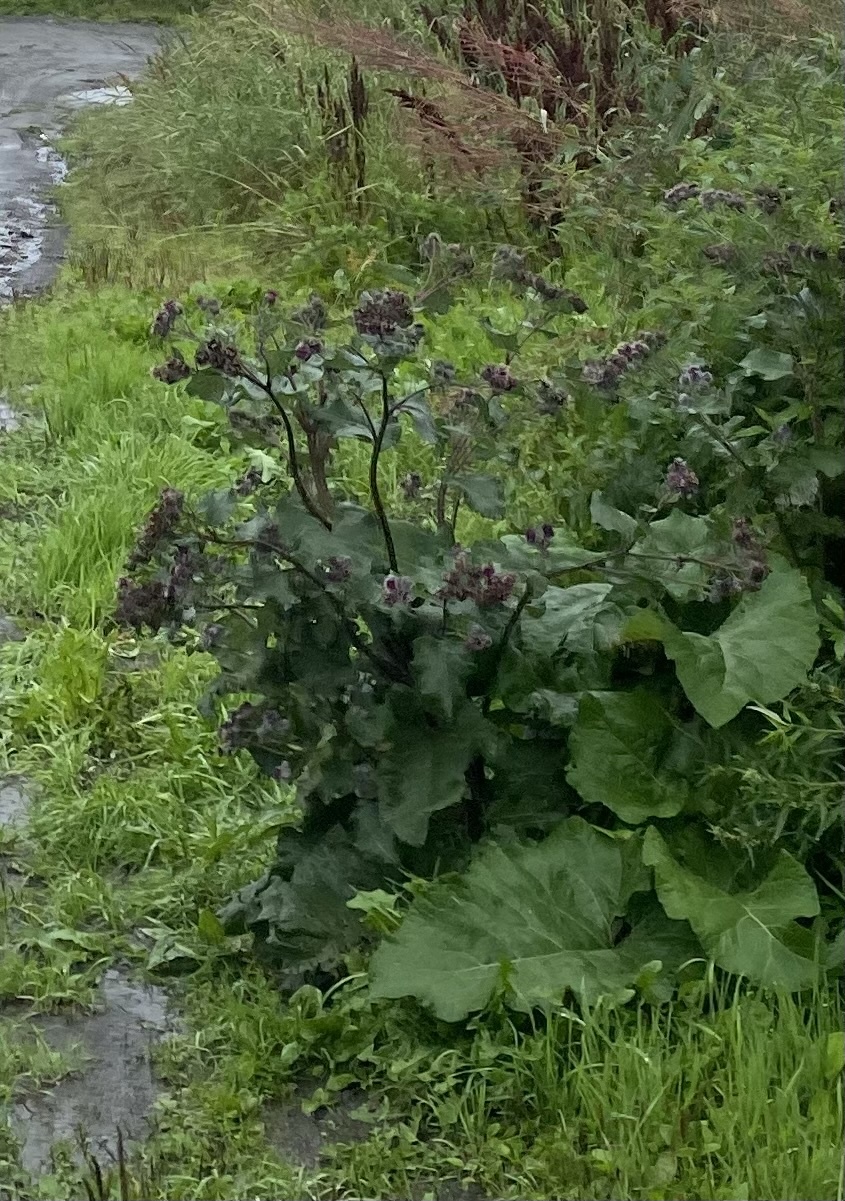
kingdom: Plantae
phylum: Tracheophyta
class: Magnoliopsida
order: Asterales
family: Asteraceae
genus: Arctium
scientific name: Arctium tomentosum
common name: Woolly burdock
